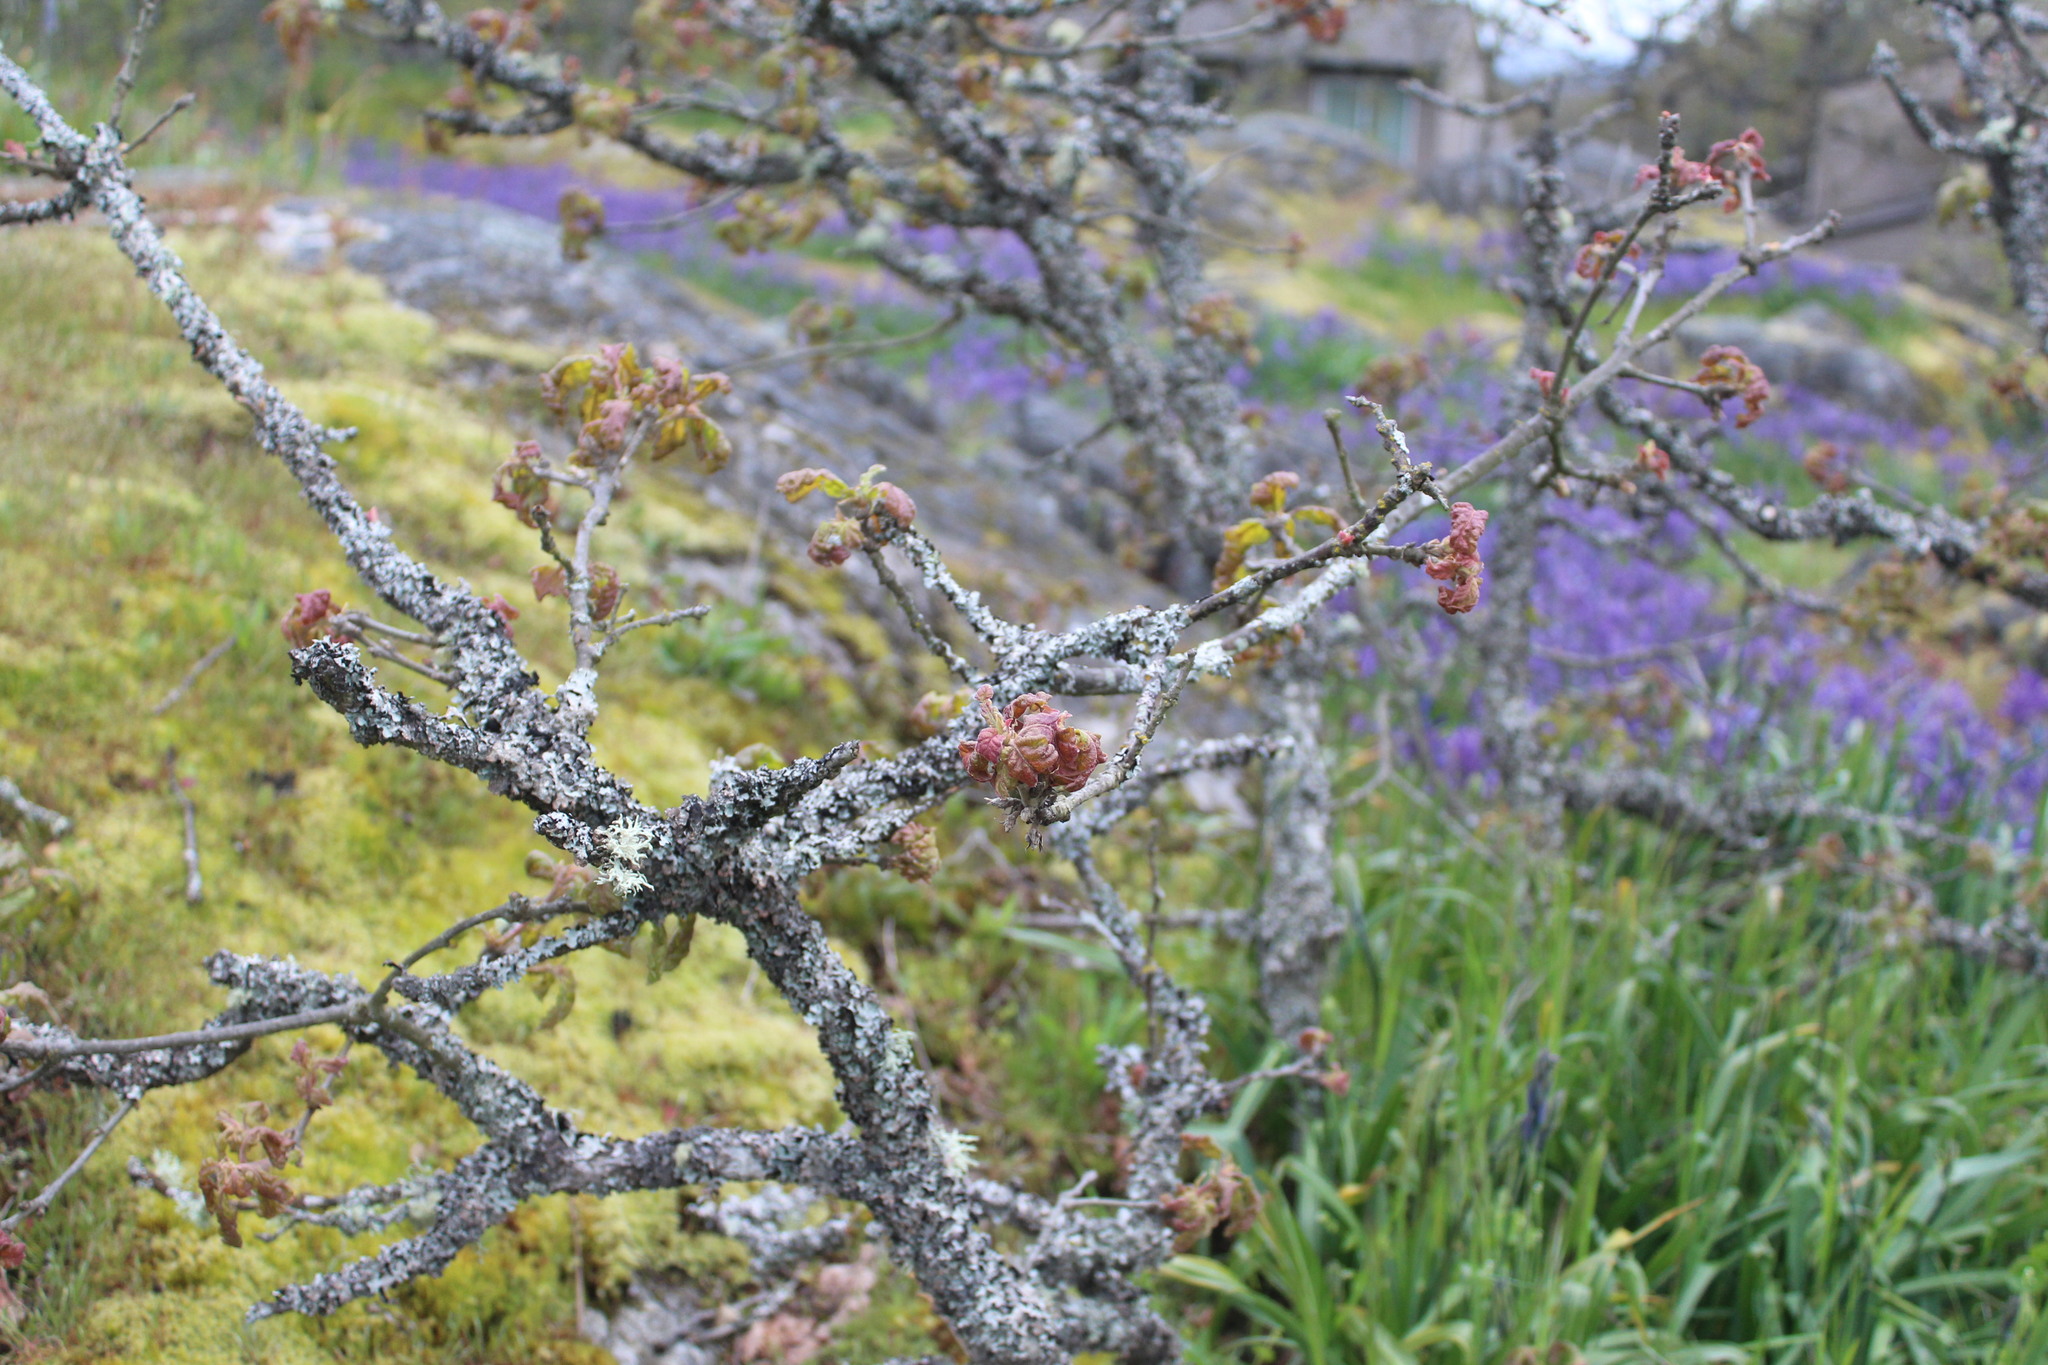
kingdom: Plantae
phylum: Tracheophyta
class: Magnoliopsida
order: Fagales
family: Fagaceae
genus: Quercus
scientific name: Quercus garryana
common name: Garry oak
